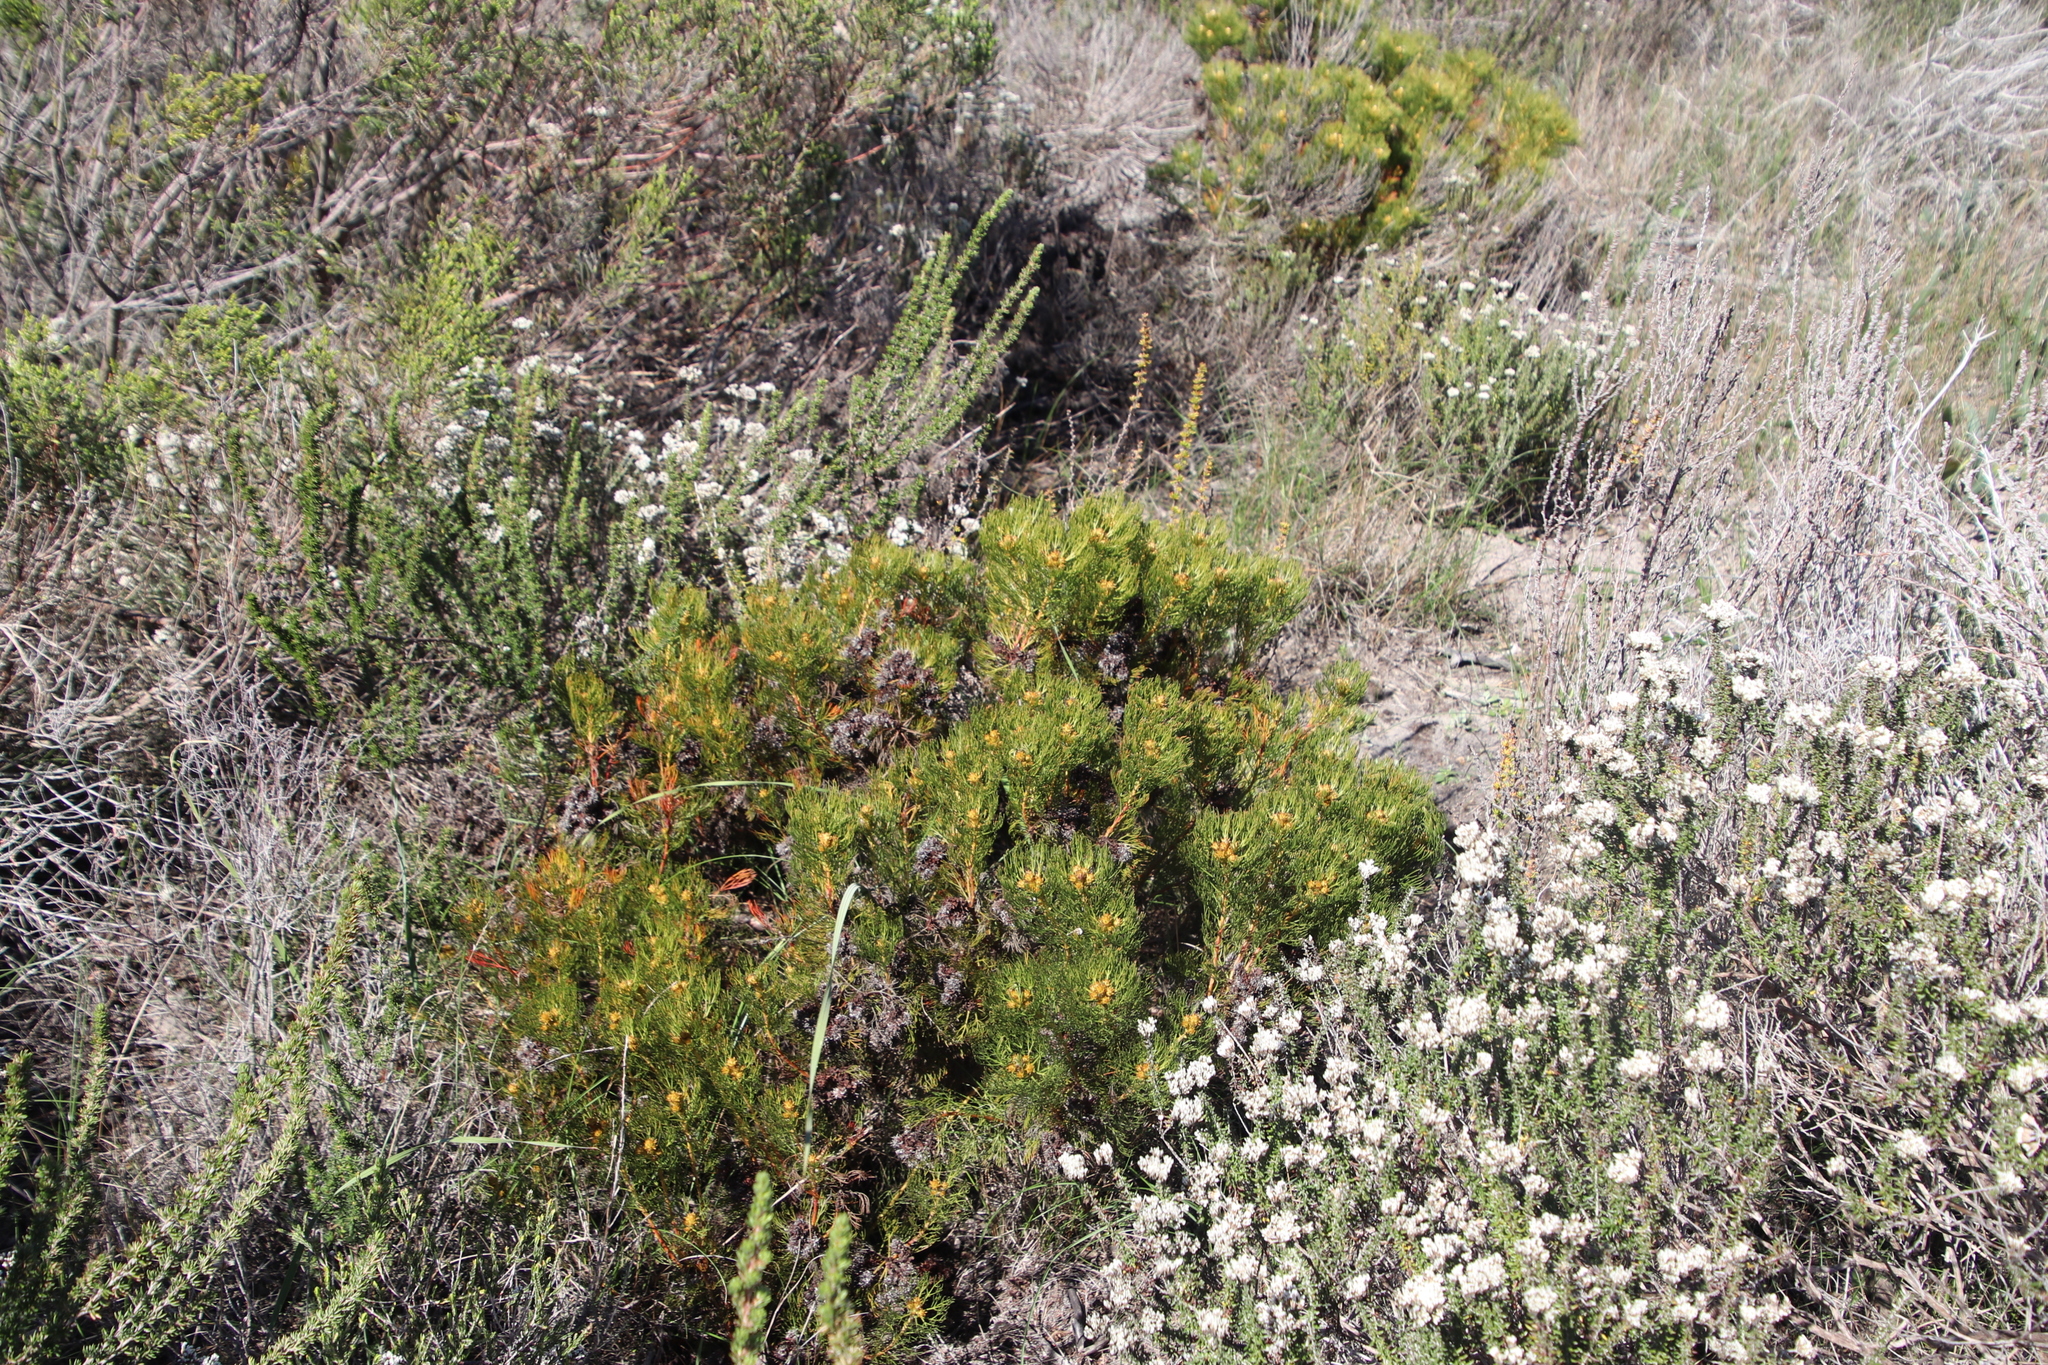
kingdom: Plantae
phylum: Tracheophyta
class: Magnoliopsida
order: Proteales
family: Proteaceae
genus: Serruria
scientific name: Serruria glomerata
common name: Cluster spiderhead
